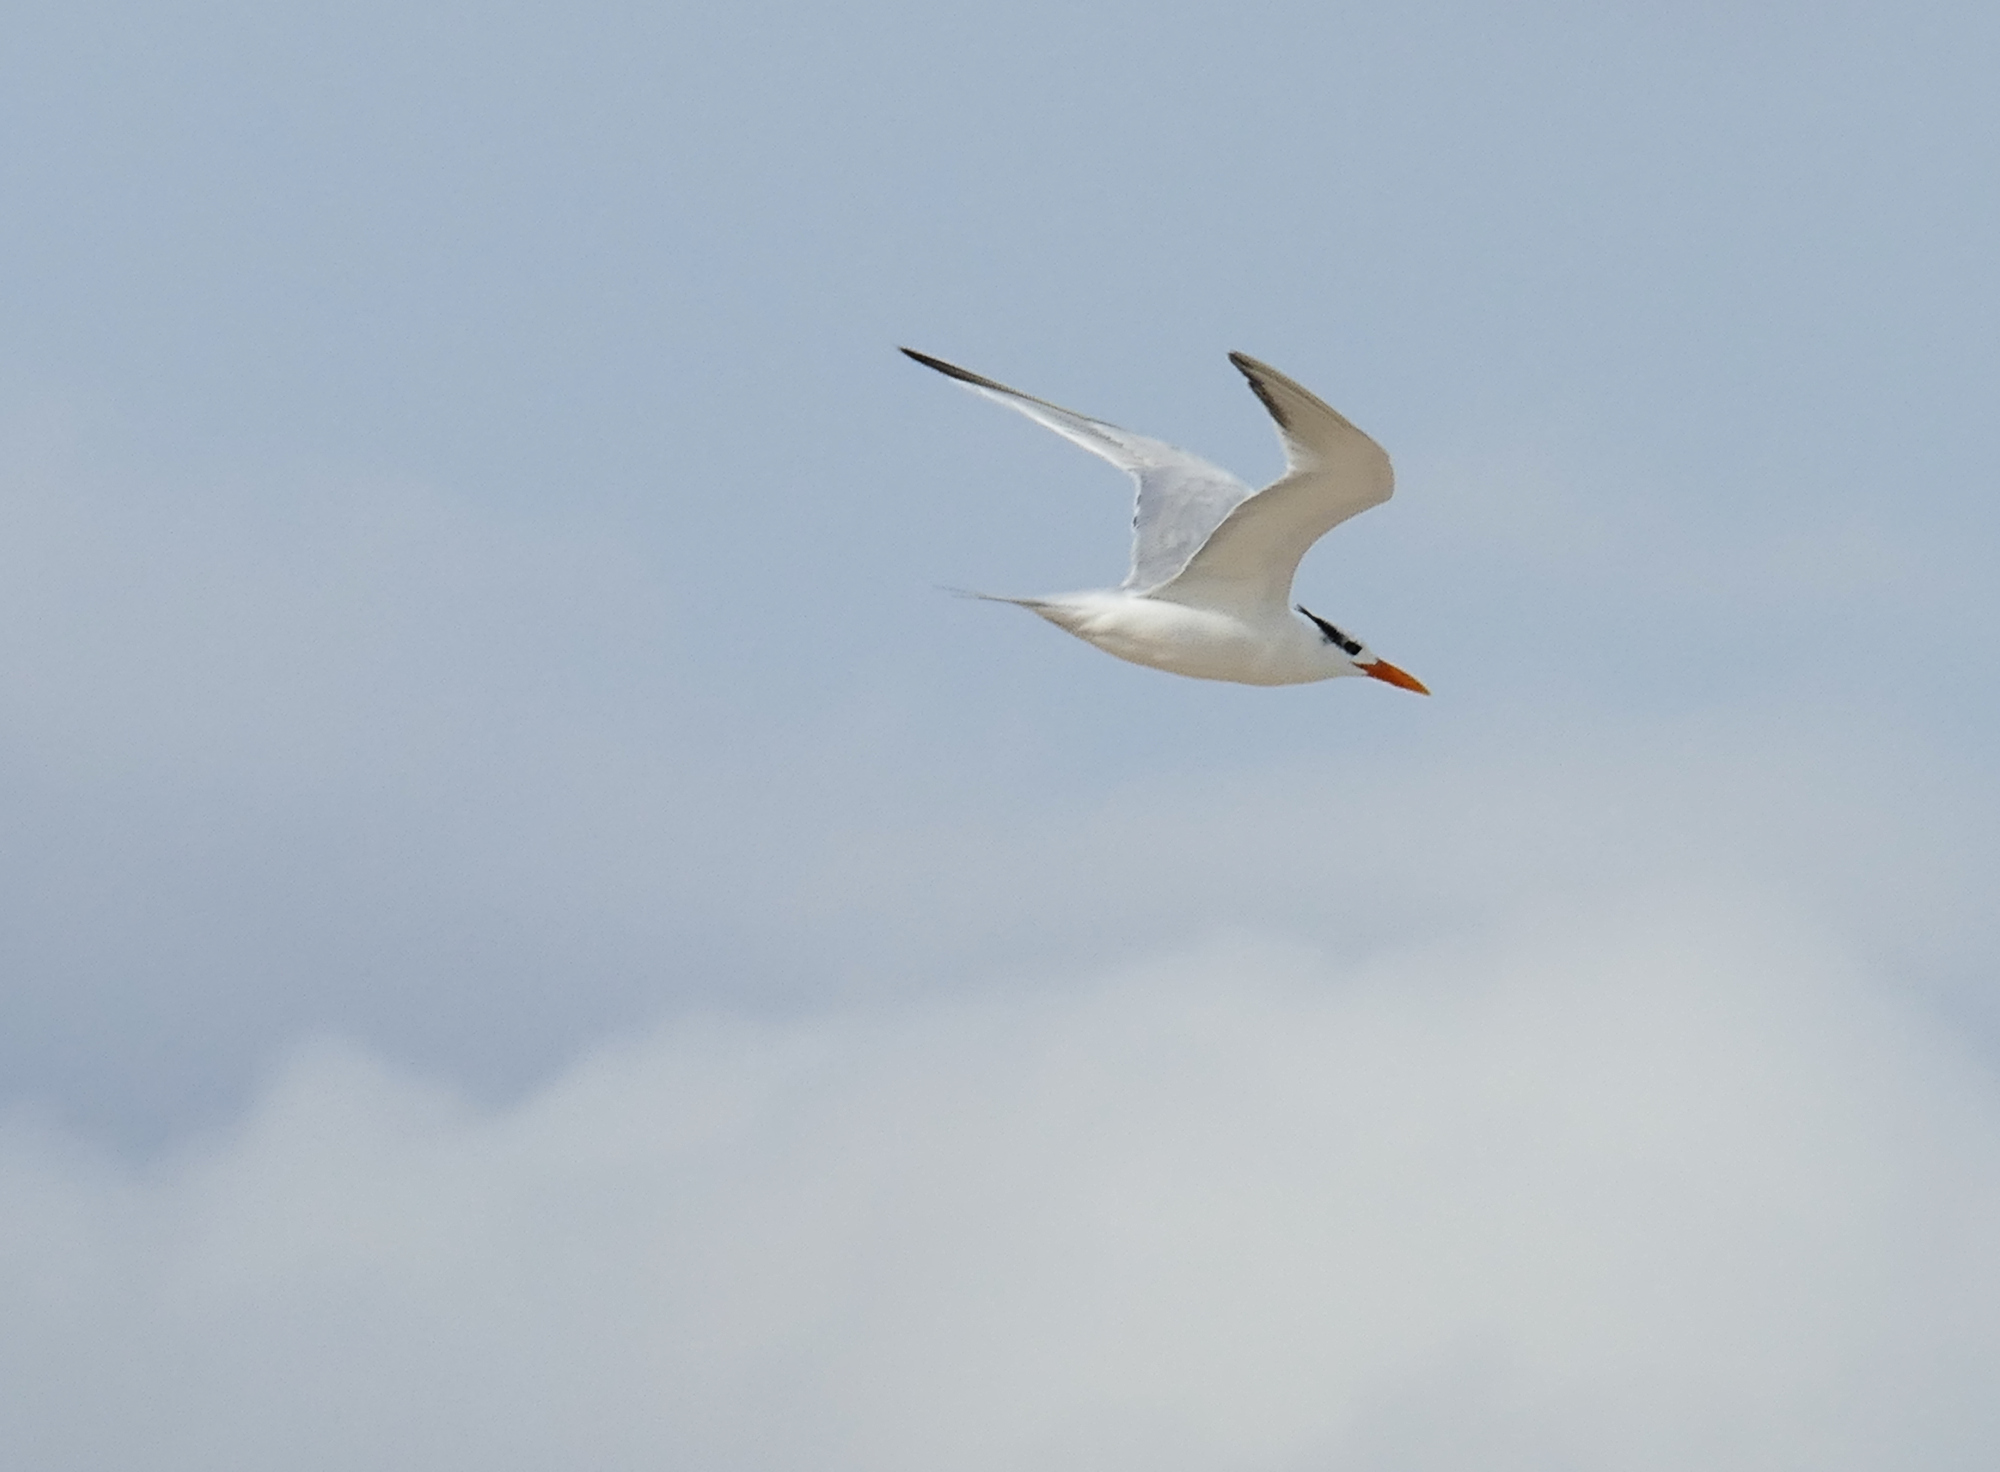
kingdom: Animalia
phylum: Chordata
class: Aves
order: Charadriiformes
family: Laridae
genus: Thalasseus
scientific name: Thalasseus maximus
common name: Royal tern
